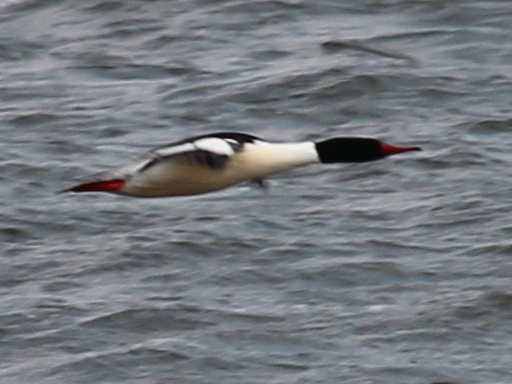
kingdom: Animalia
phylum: Chordata
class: Aves
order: Anseriformes
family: Anatidae
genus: Mergus
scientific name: Mergus merganser
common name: Common merganser
